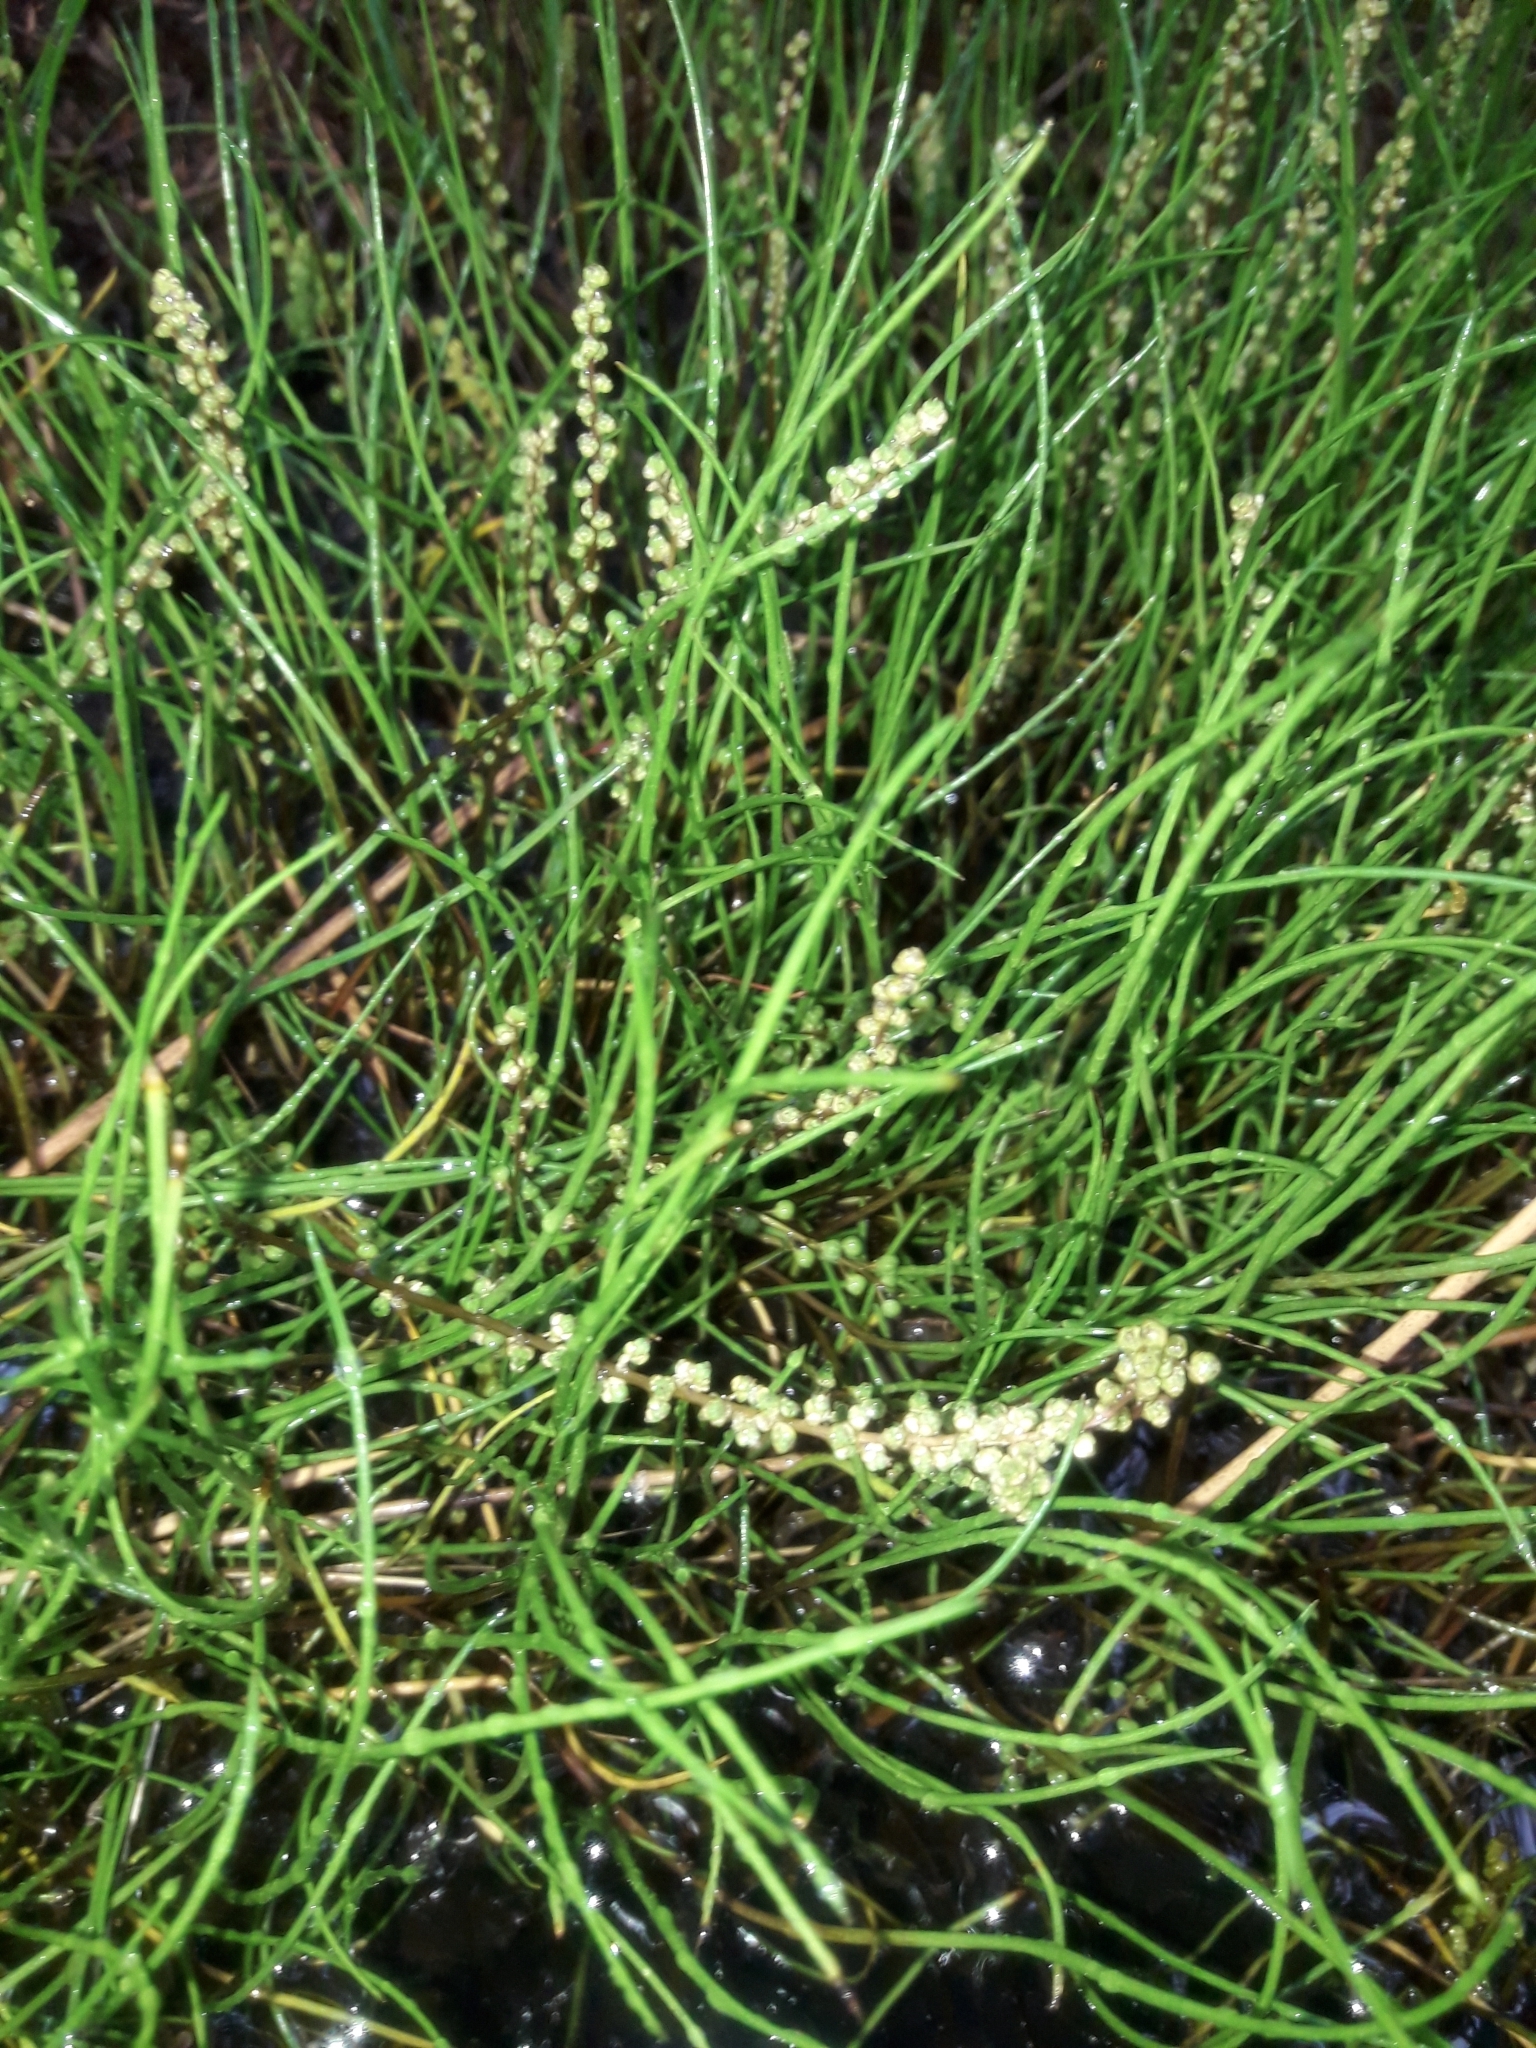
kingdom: Plantae
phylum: Tracheophyta
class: Liliopsida
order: Alismatales
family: Juncaginaceae
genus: Triglochin
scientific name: Triglochin striata
